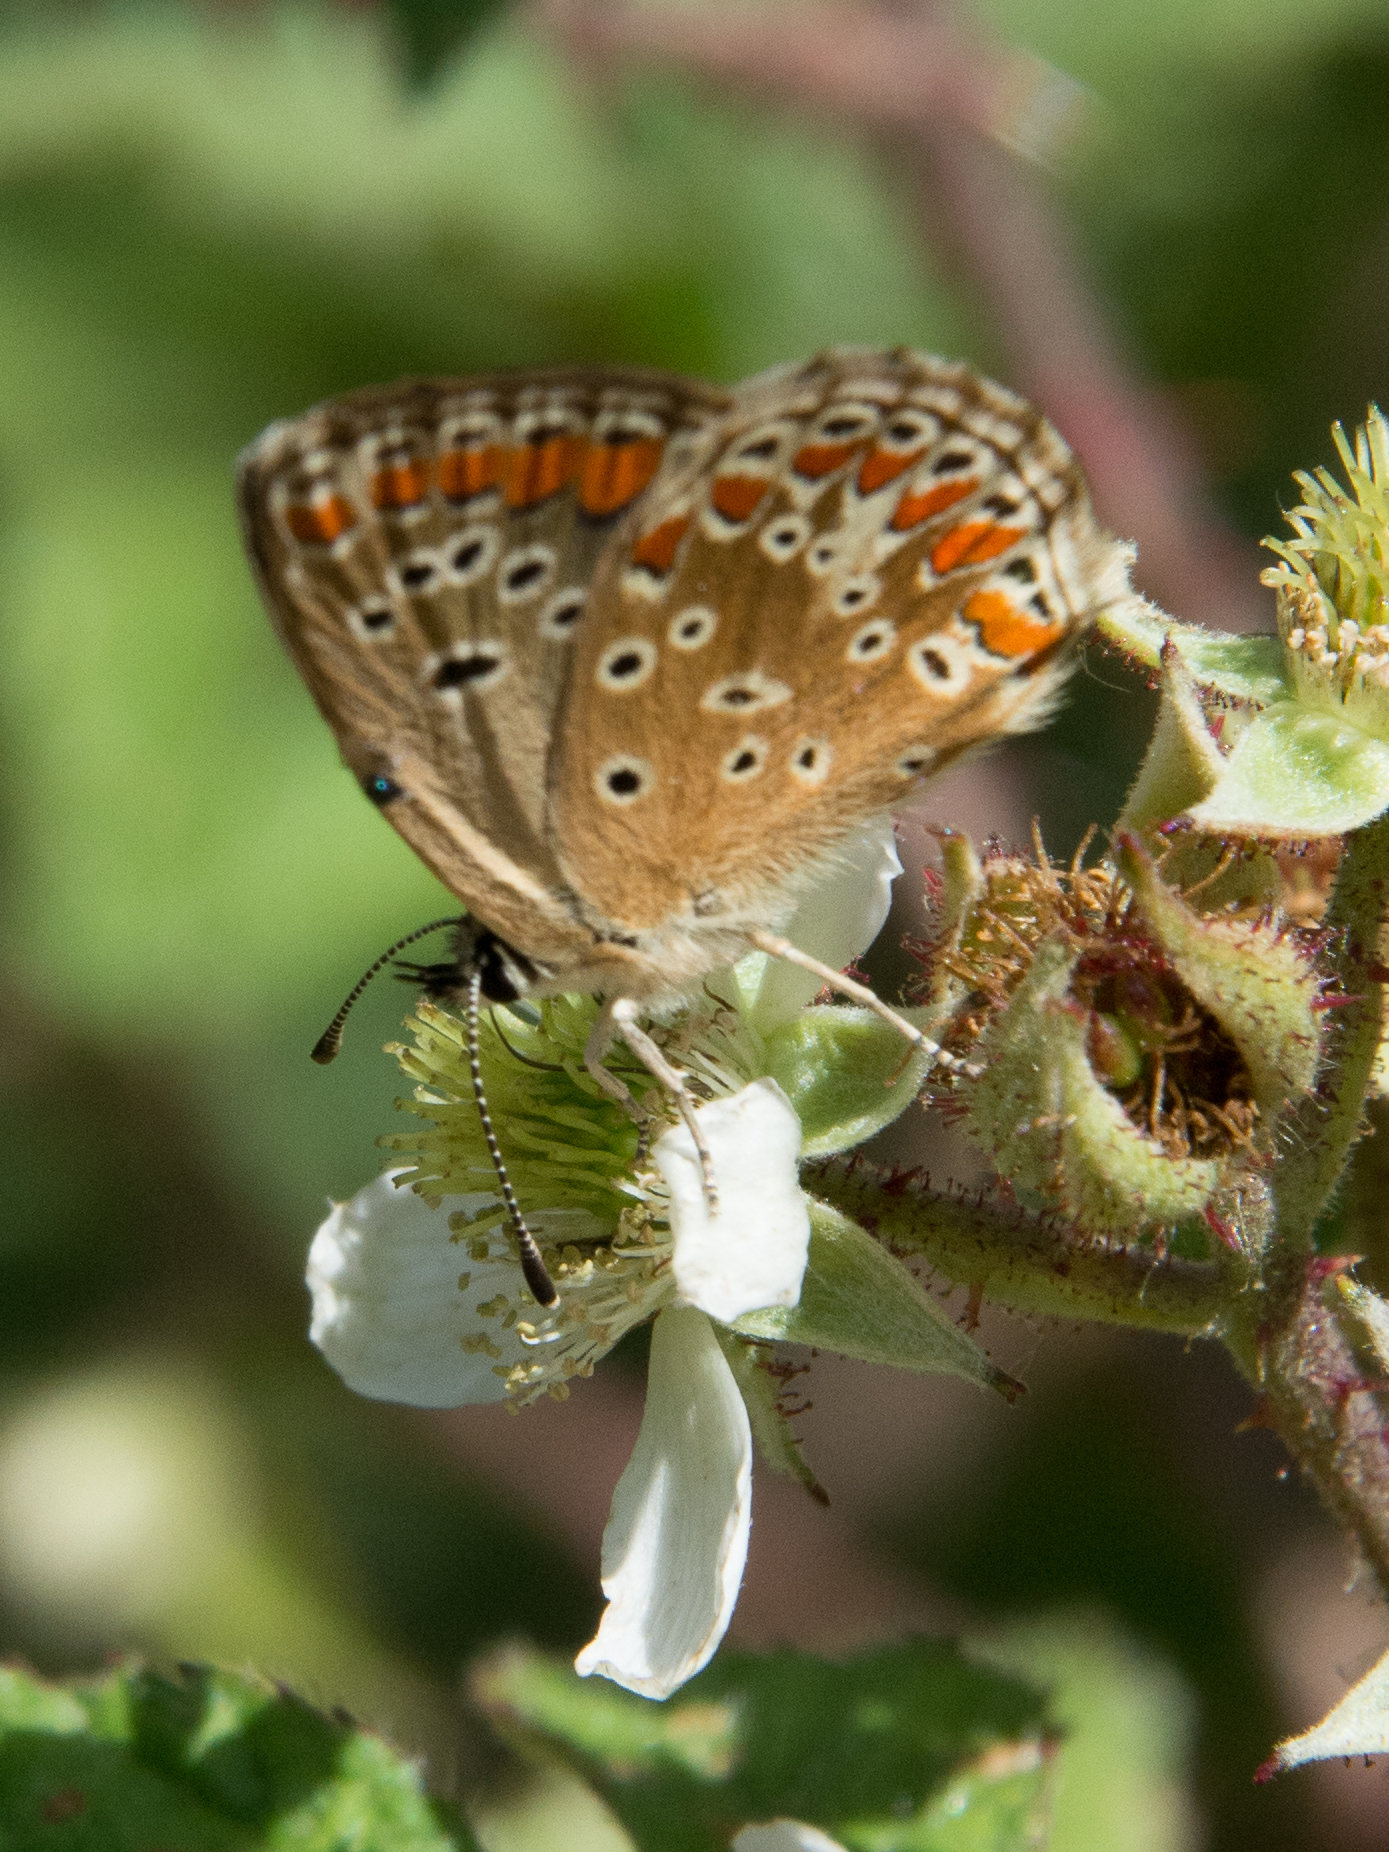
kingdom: Animalia
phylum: Arthropoda
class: Insecta
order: Lepidoptera
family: Lycaenidae
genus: Aricia
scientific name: Aricia agestis
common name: Brown argus
